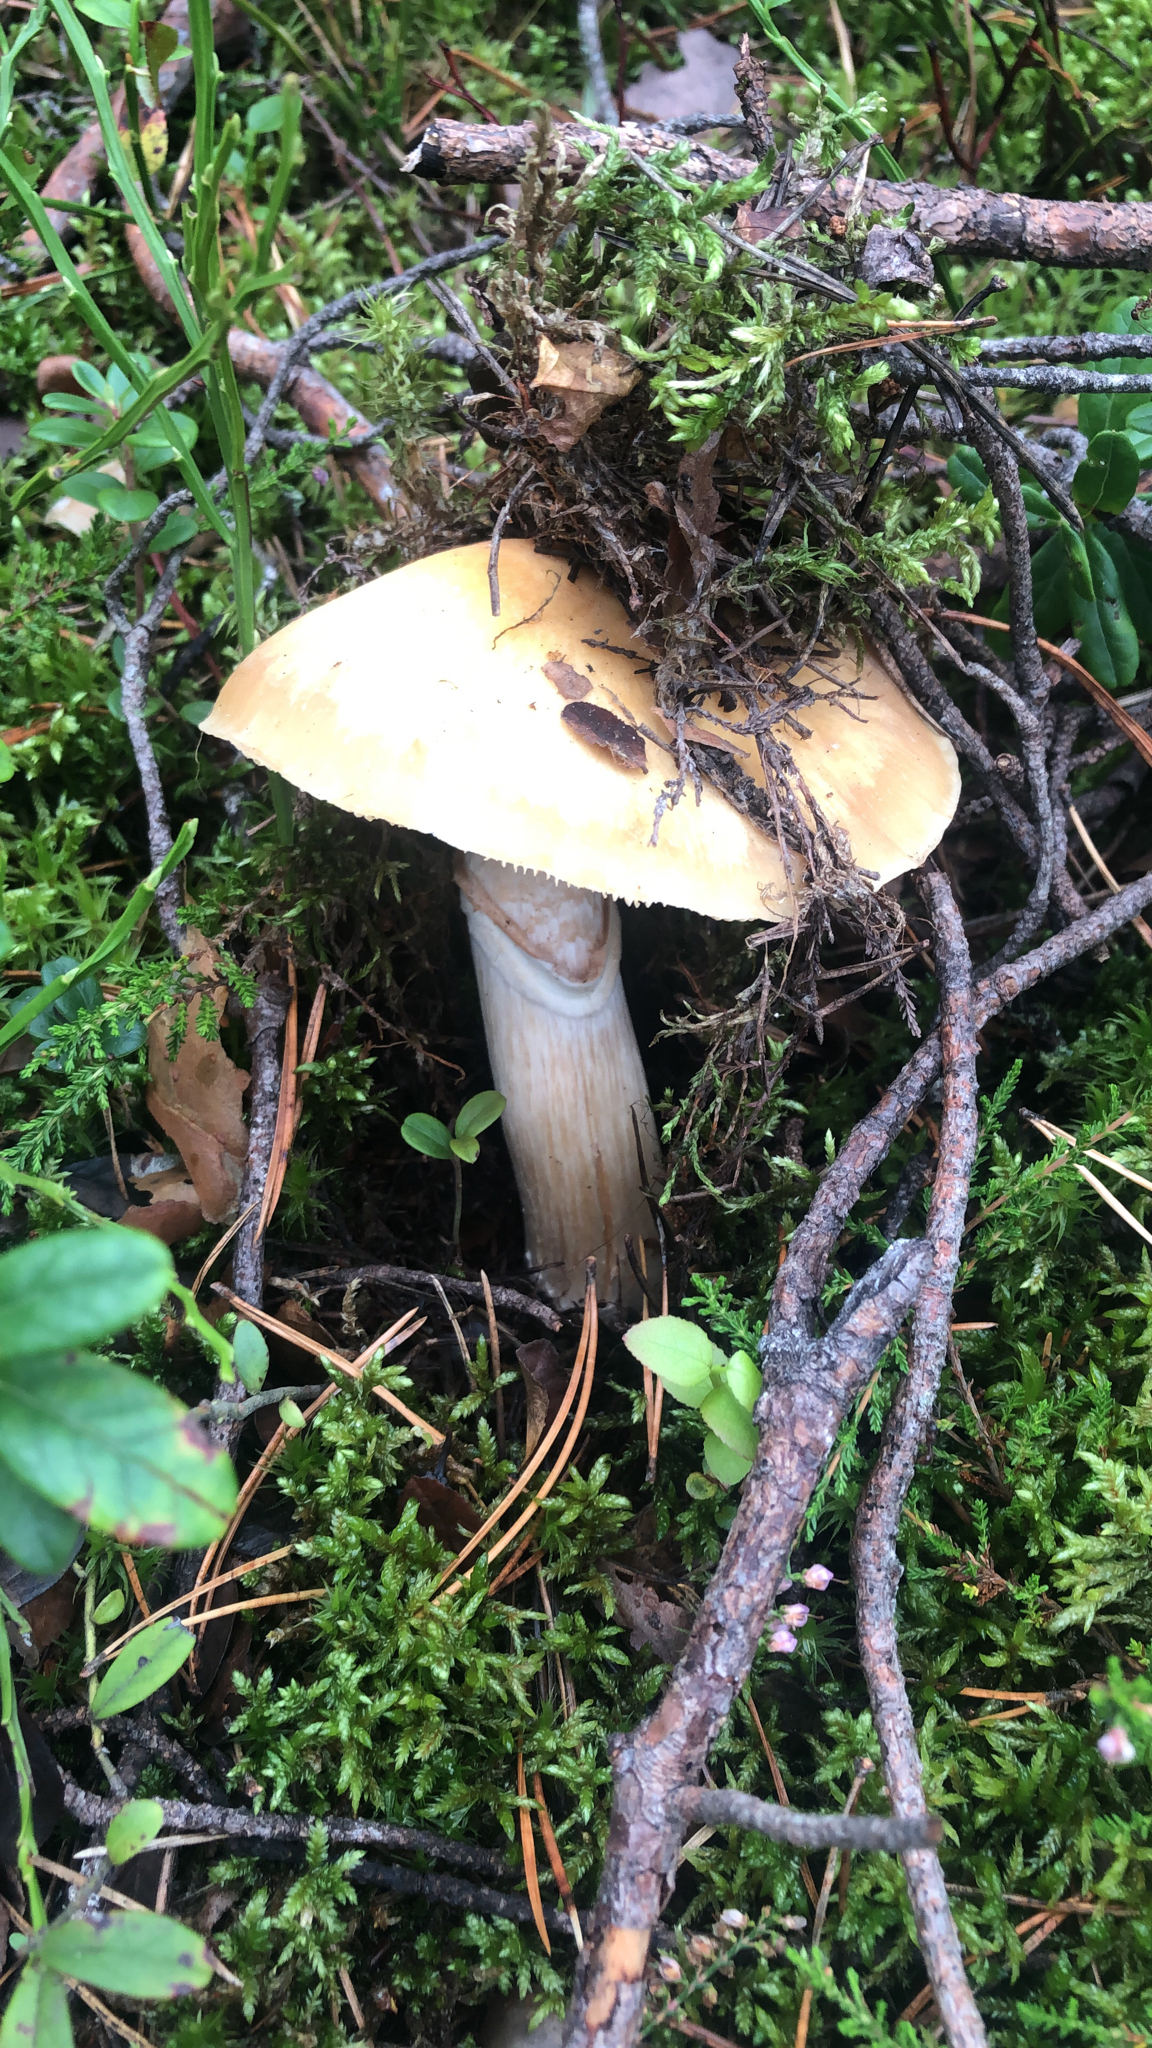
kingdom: Fungi
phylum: Basidiomycota
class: Agaricomycetes
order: Agaricales
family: Cortinariaceae
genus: Cortinarius
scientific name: Cortinarius caperatus
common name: The gypsy
